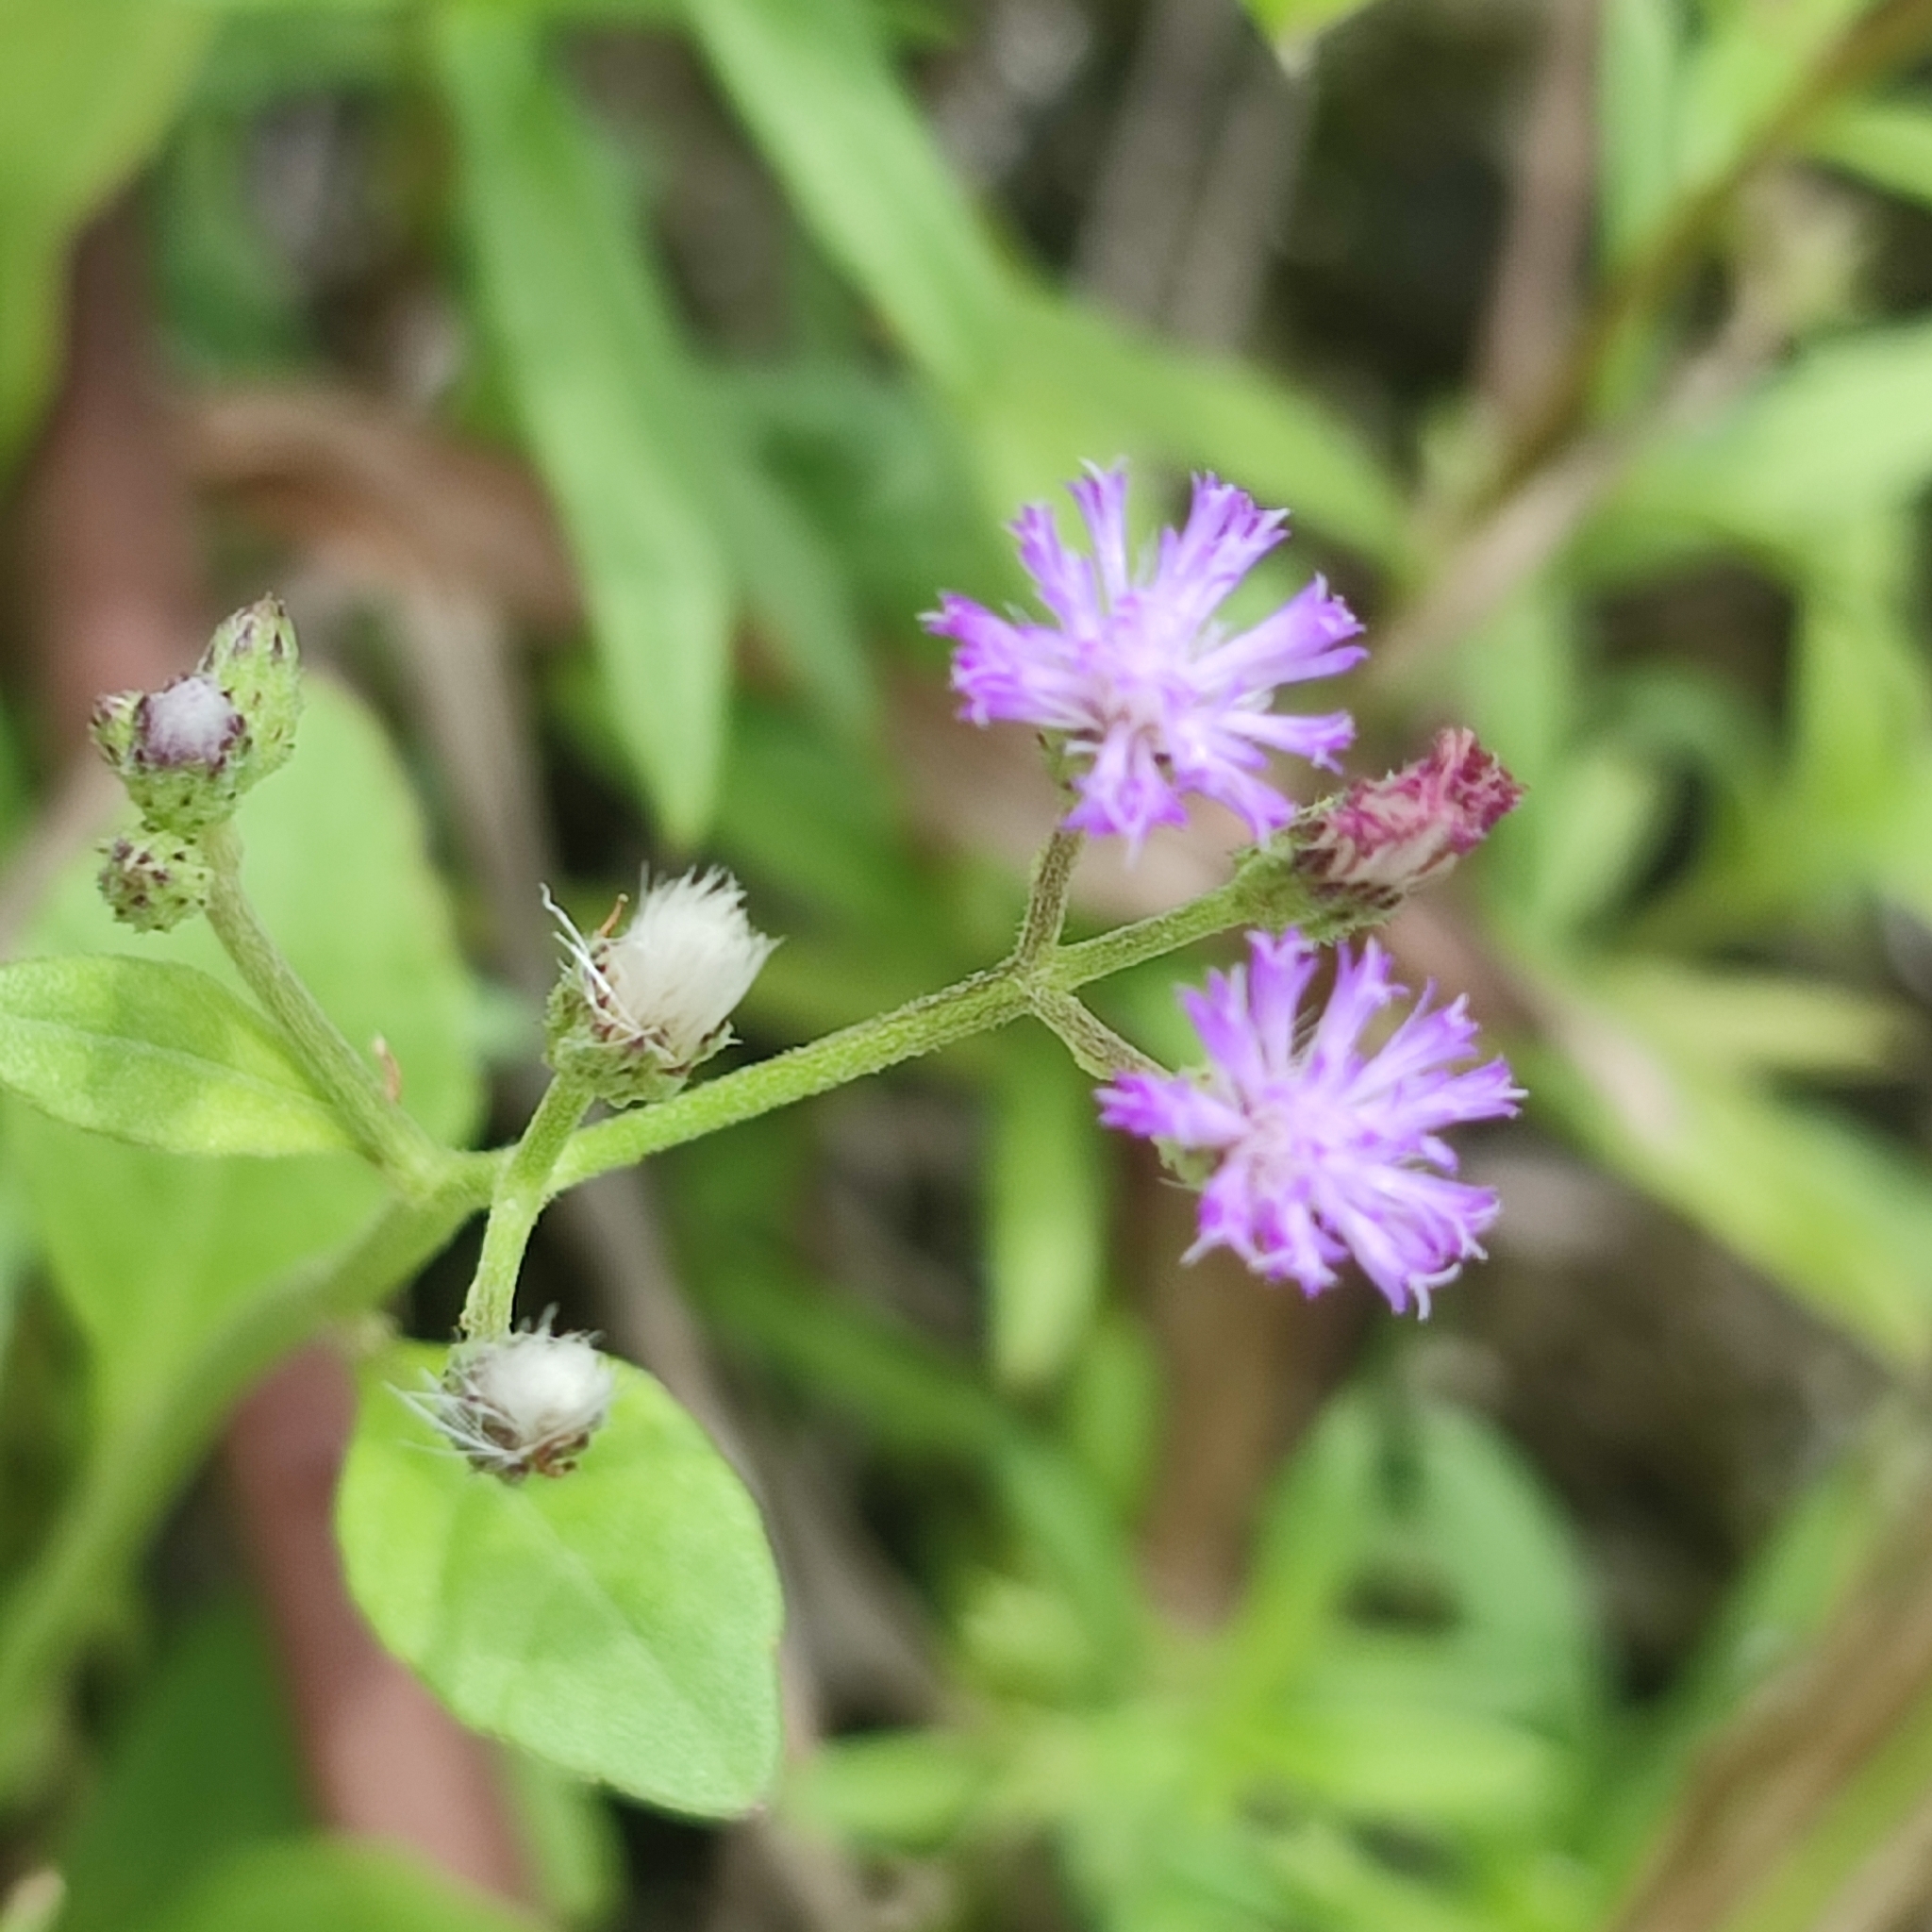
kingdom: Plantae
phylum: Tracheophyta
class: Magnoliopsida
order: Asterales
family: Asteraceae
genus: Cyanthillium
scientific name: Cyanthillium cinereum
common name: Little ironweed
